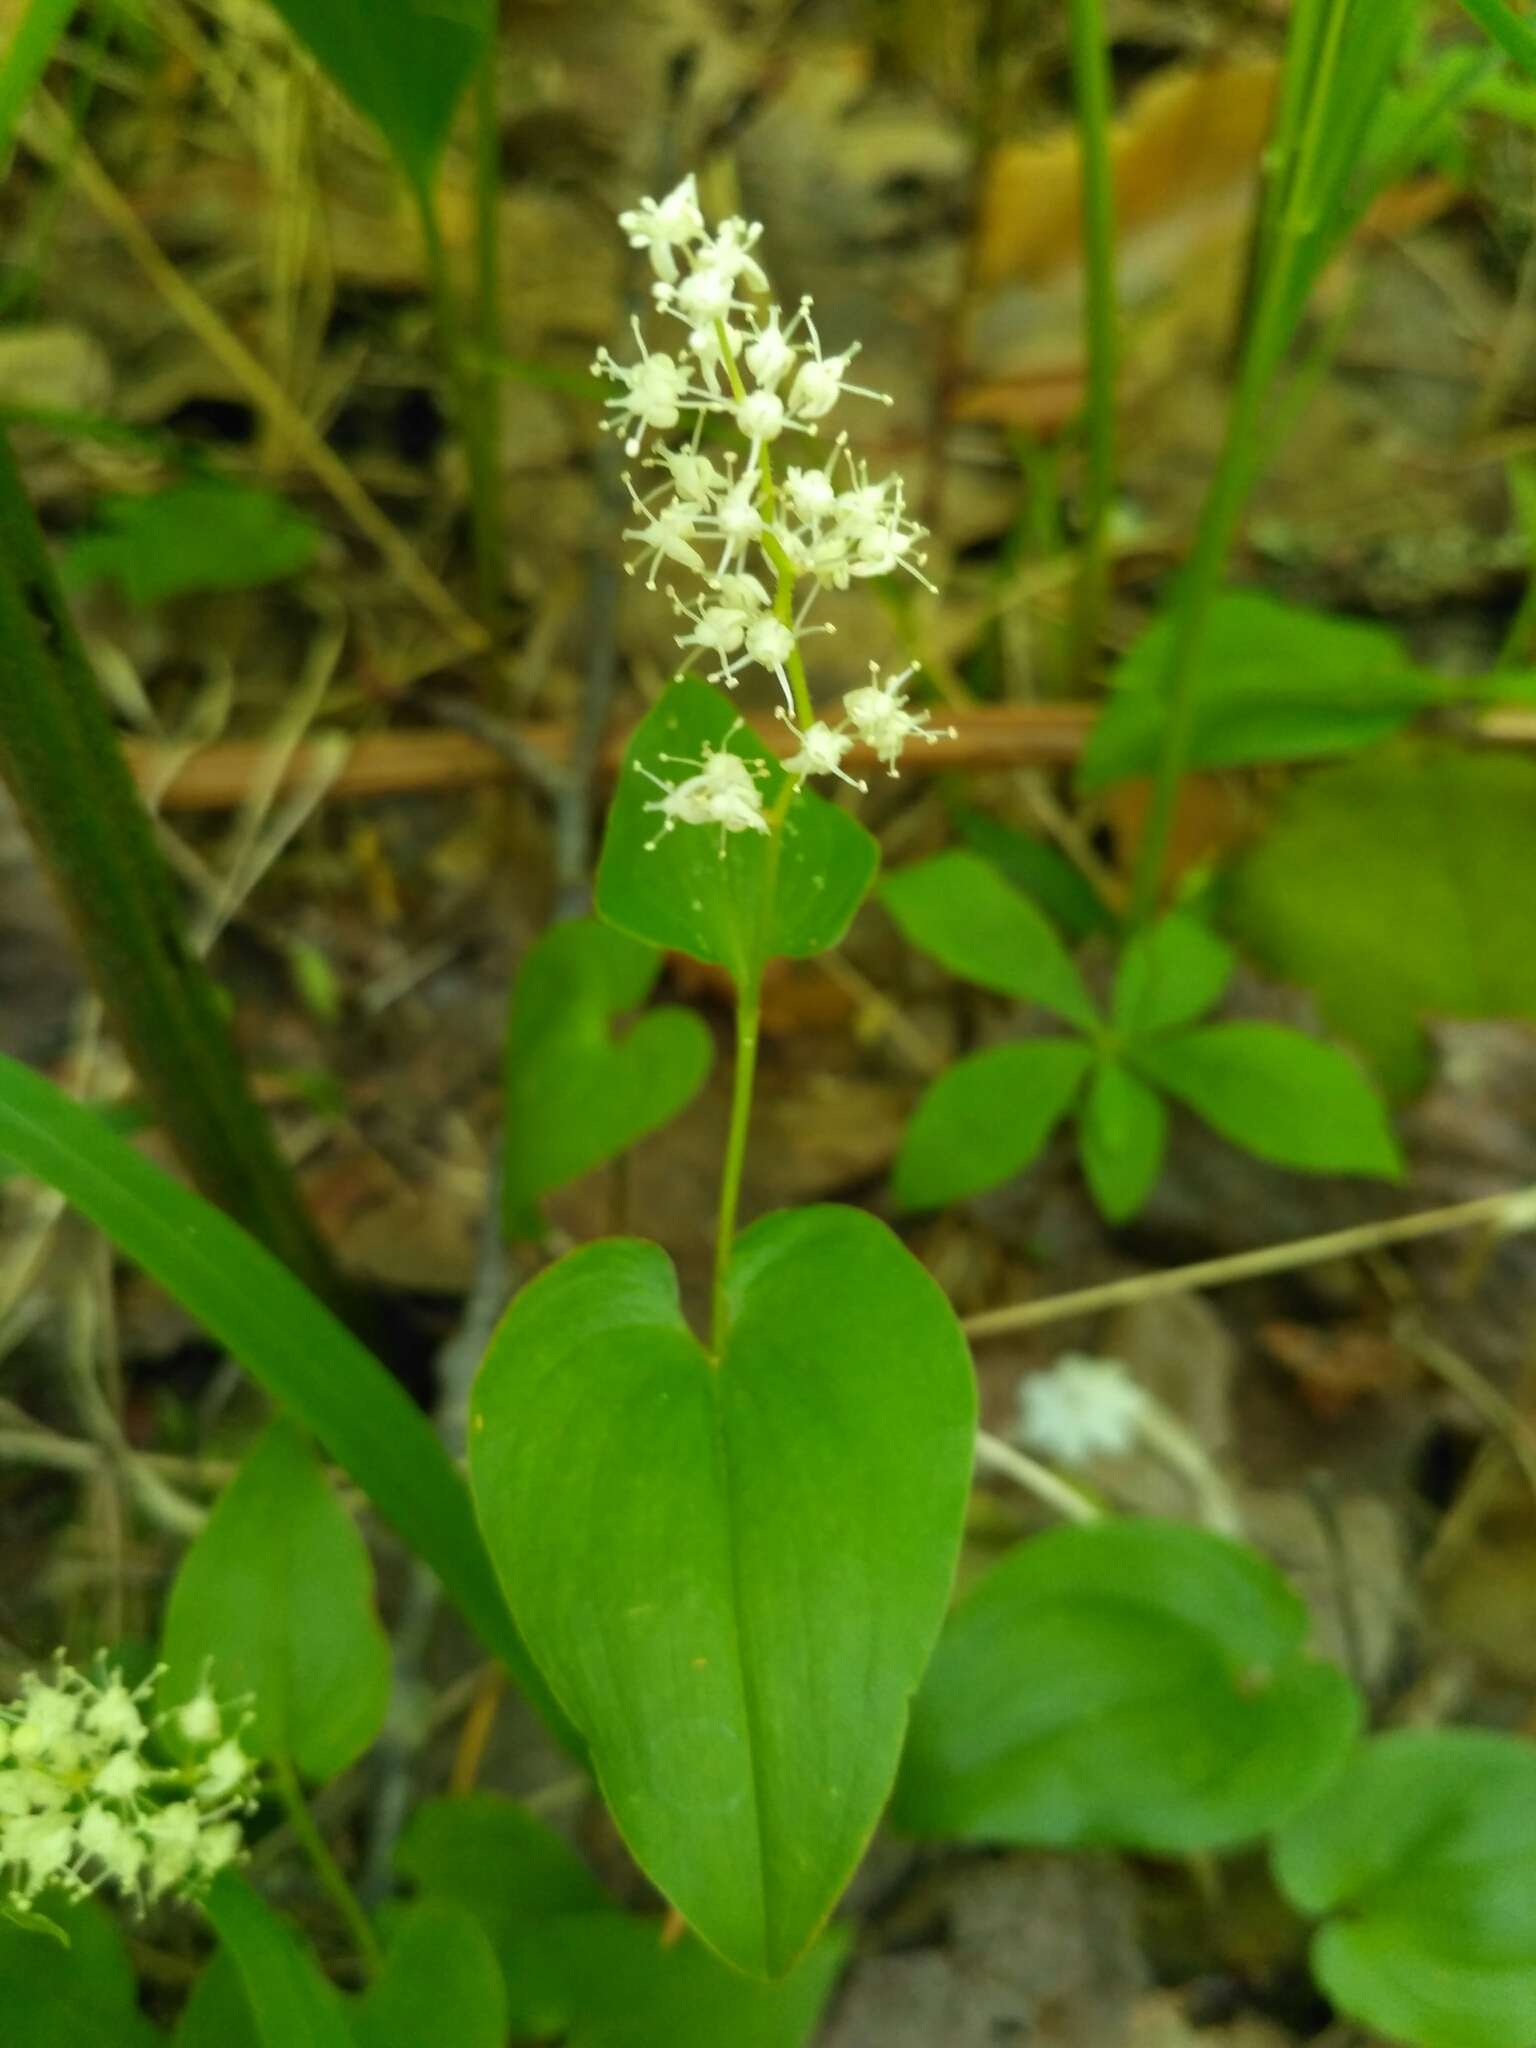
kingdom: Plantae
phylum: Tracheophyta
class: Liliopsida
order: Asparagales
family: Asparagaceae
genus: Maianthemum
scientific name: Maianthemum bifolium
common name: May lily
